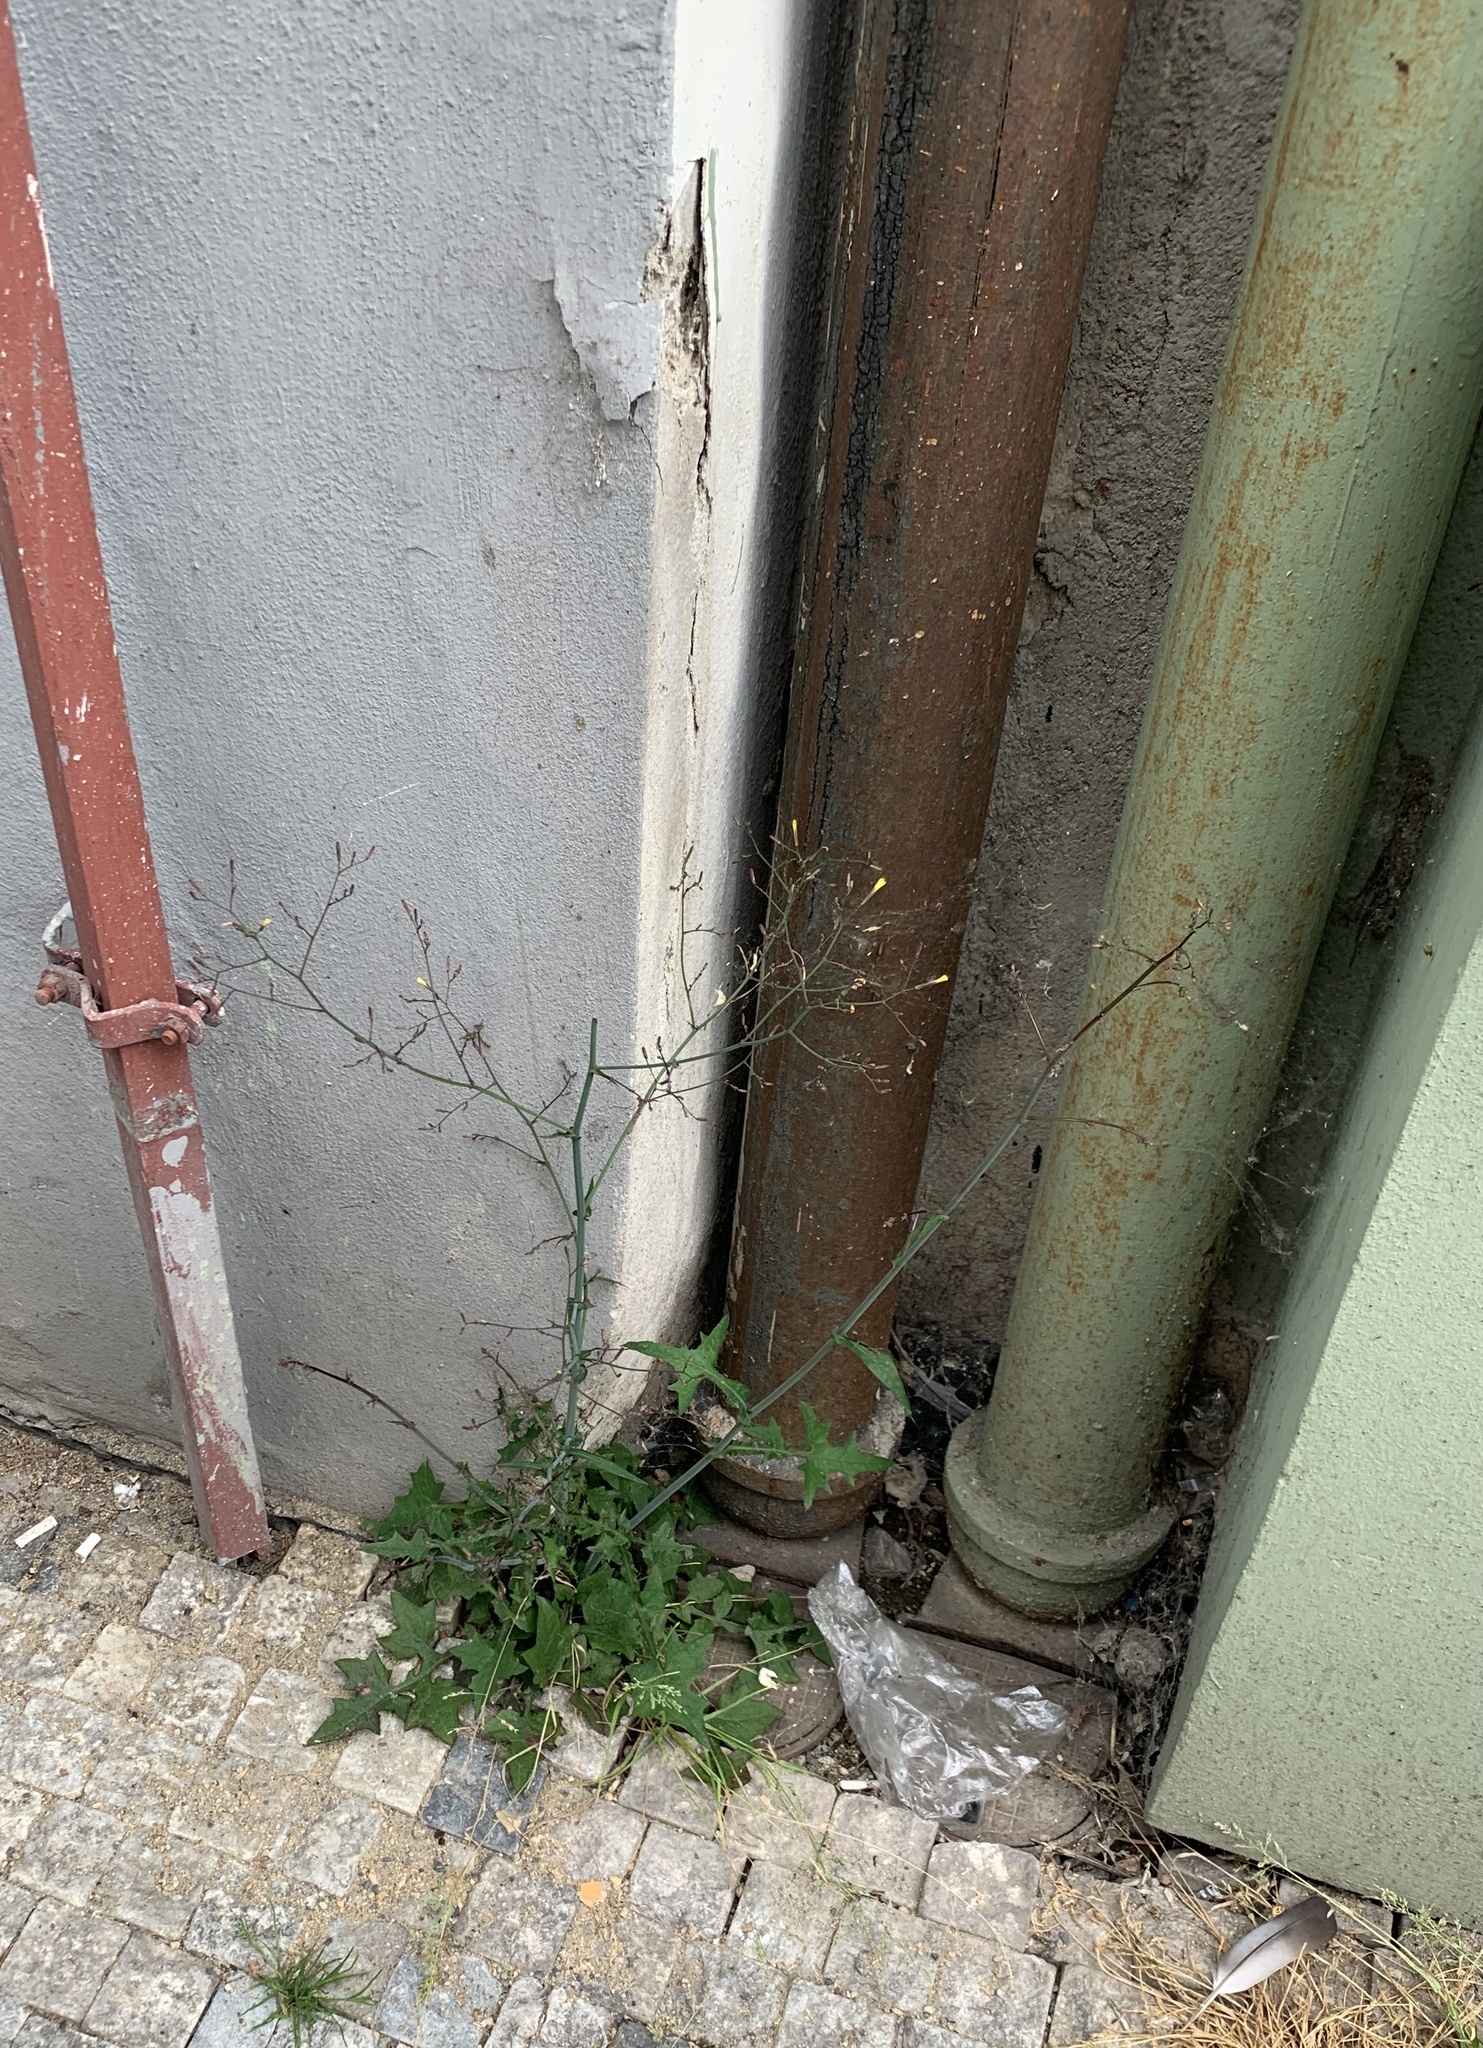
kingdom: Plantae
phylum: Tracheophyta
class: Magnoliopsida
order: Asterales
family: Asteraceae
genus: Mycelis
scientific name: Mycelis muralis
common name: Wall lettuce
